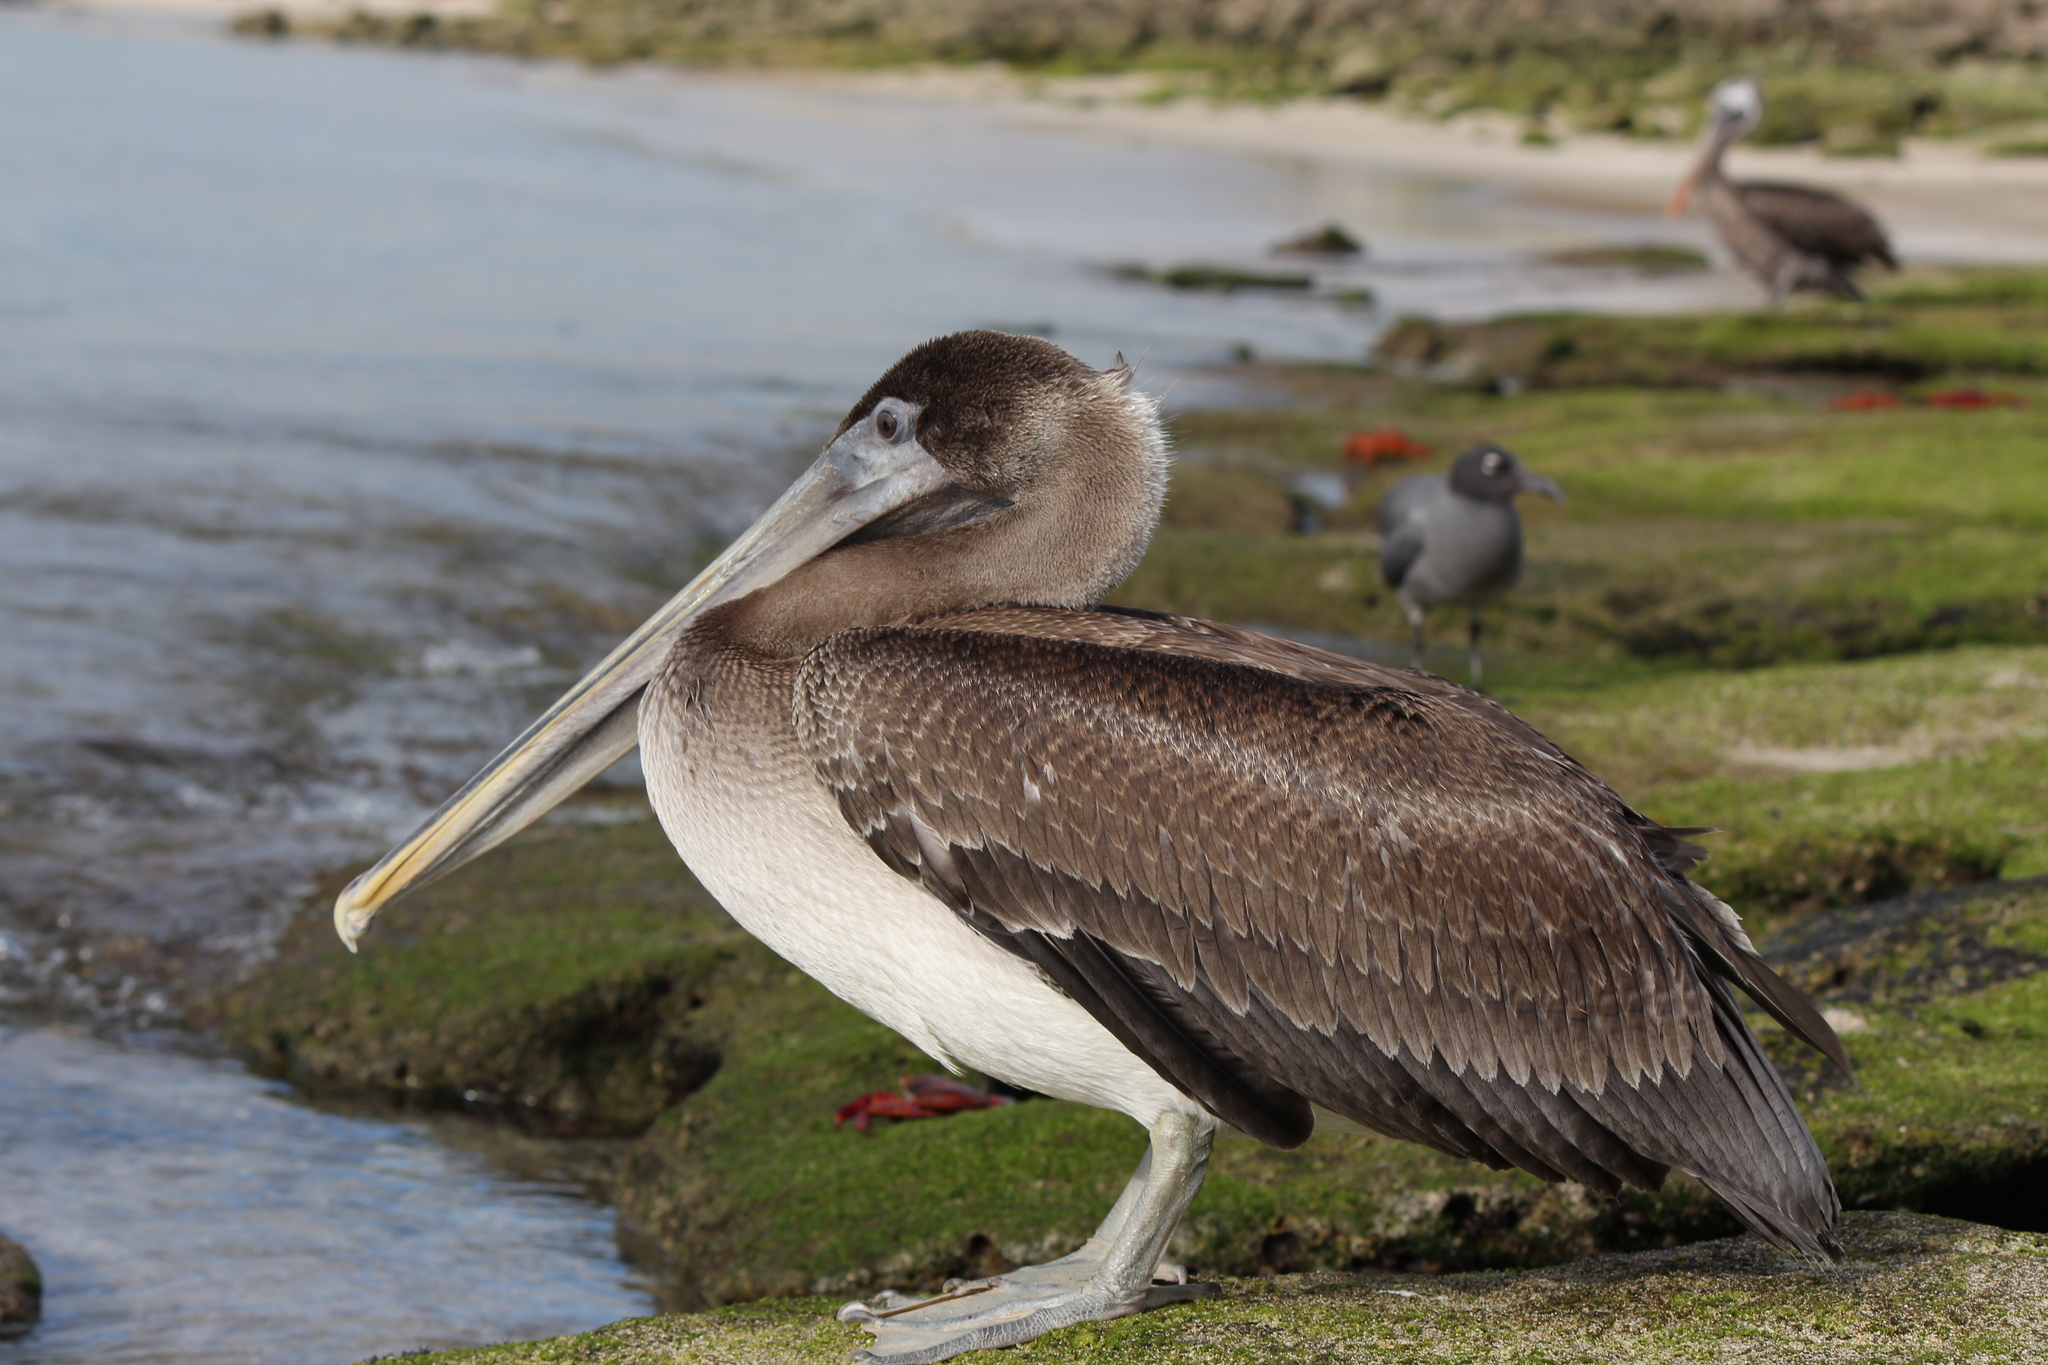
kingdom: Animalia
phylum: Chordata
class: Aves
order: Pelecaniformes
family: Pelecanidae
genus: Pelecanus
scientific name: Pelecanus occidentalis
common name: Brown pelican
